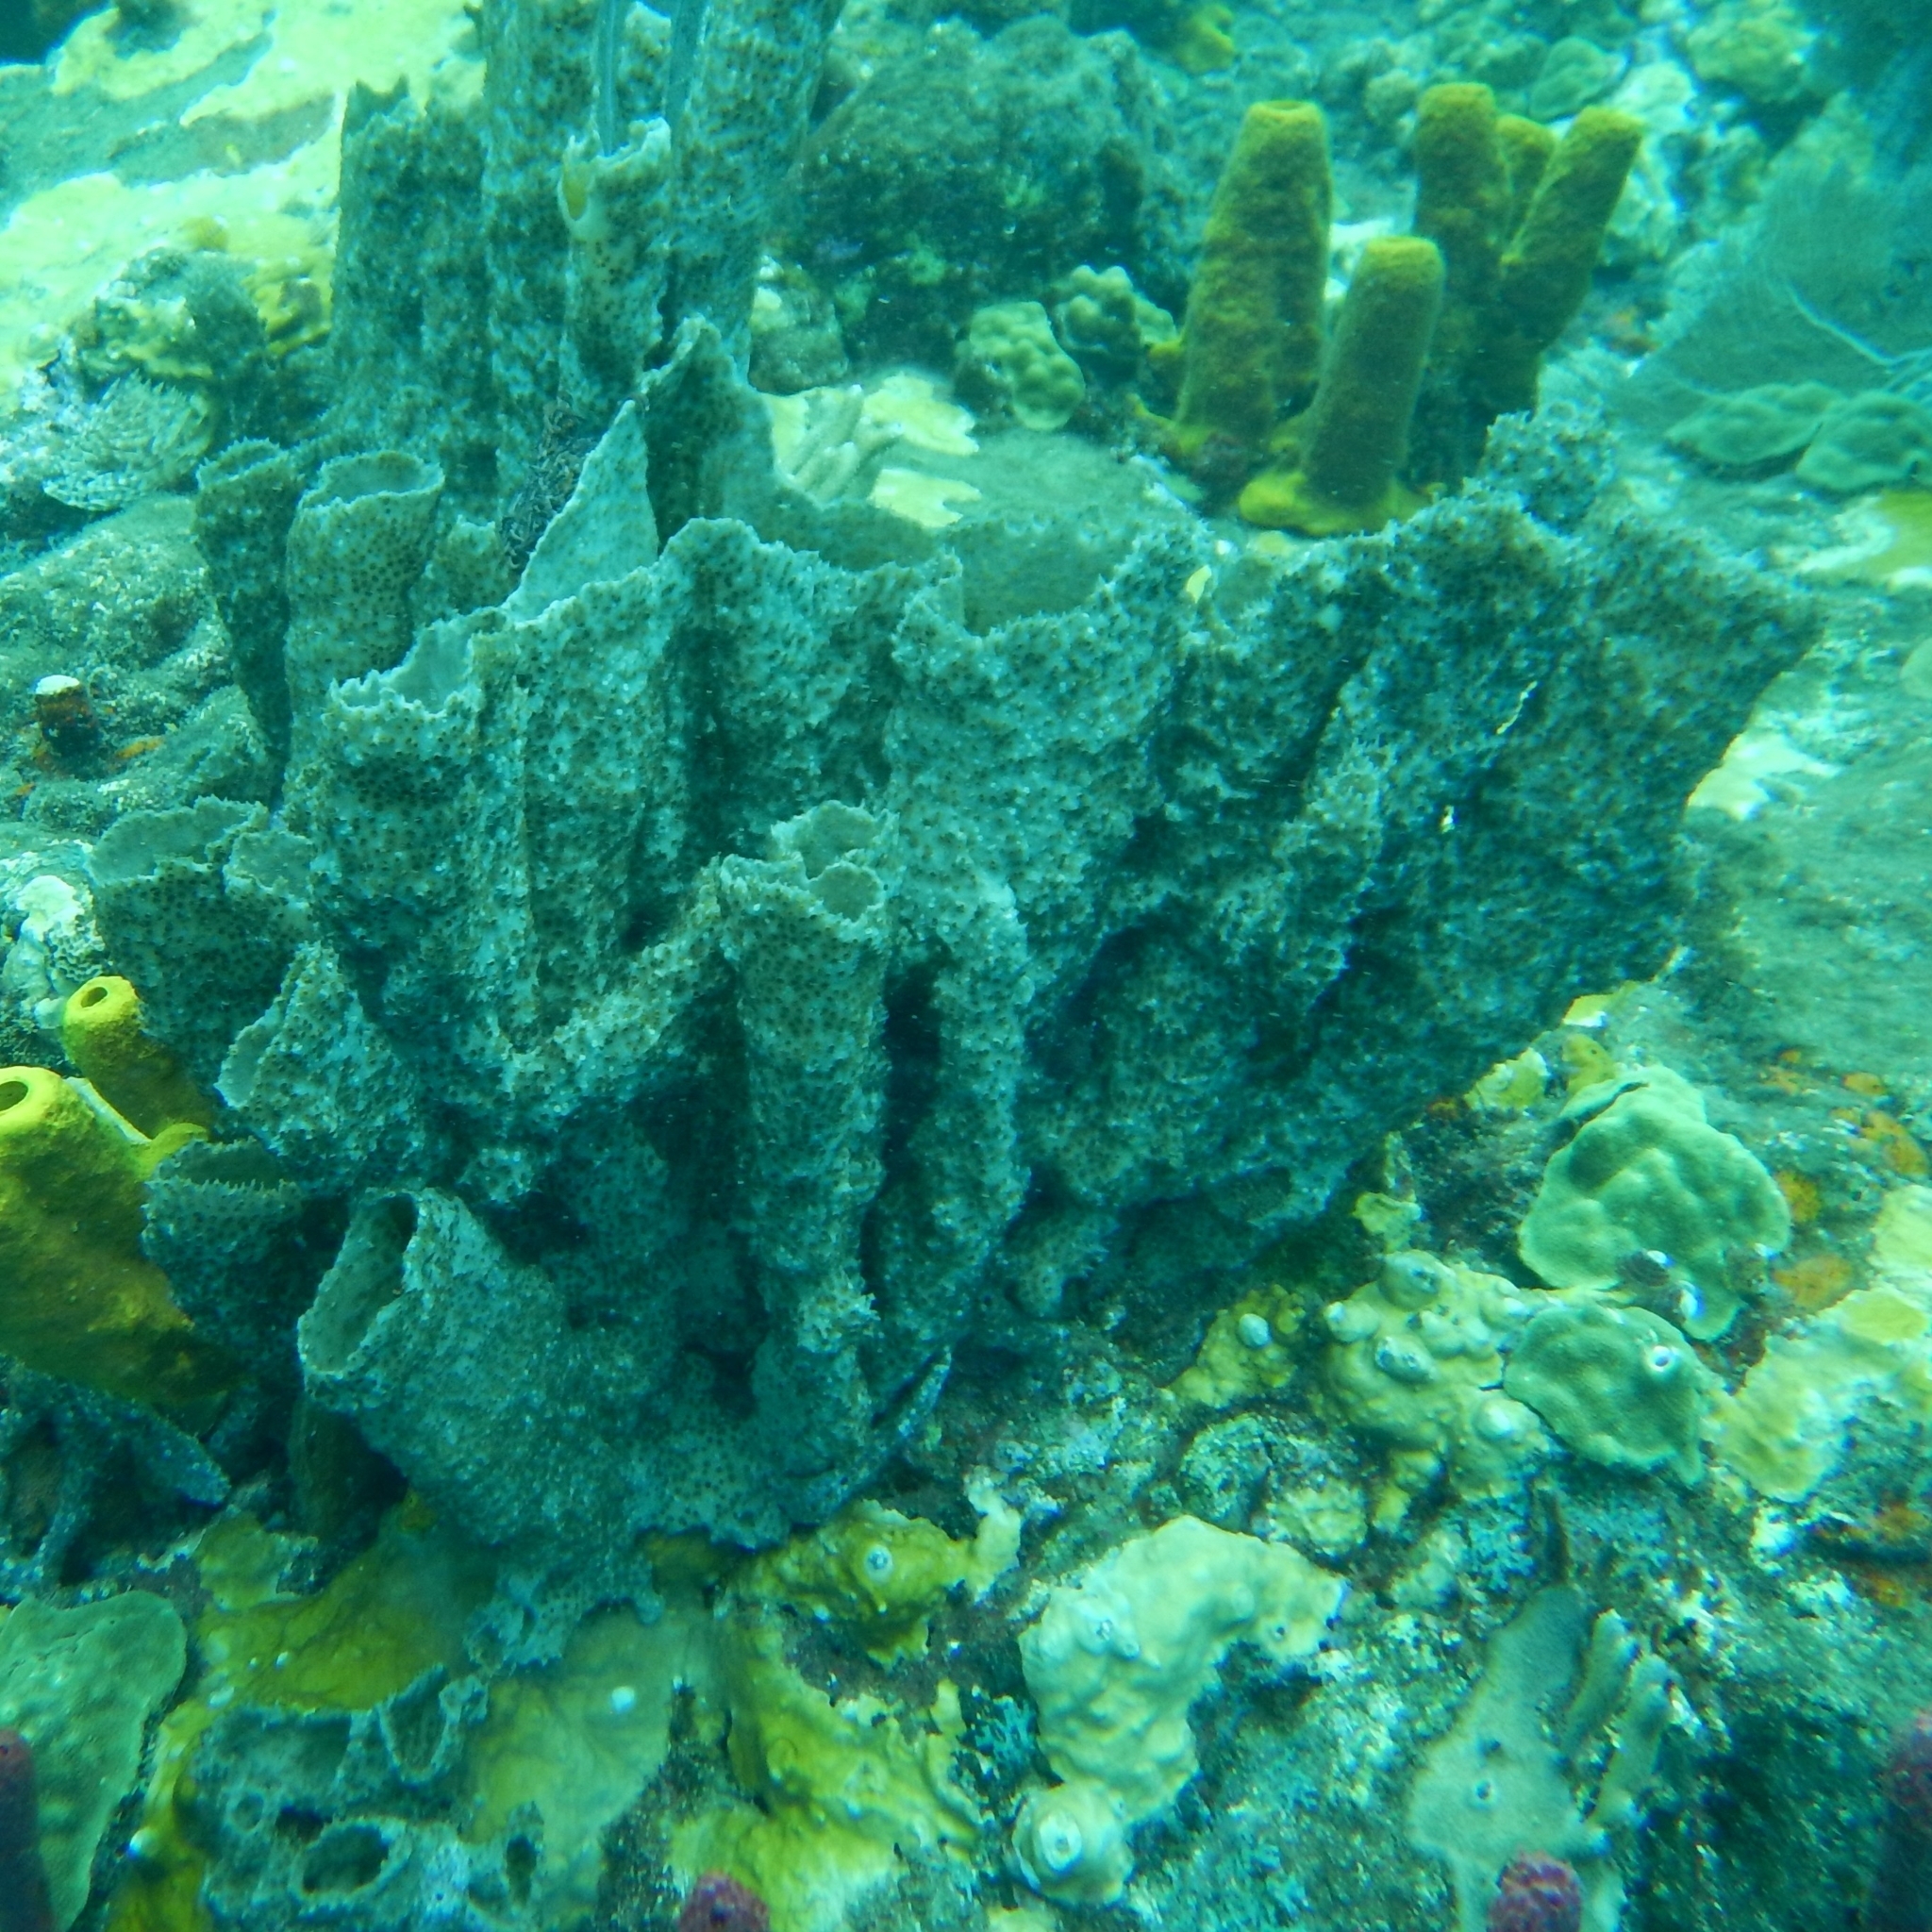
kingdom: Animalia
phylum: Porifera
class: Demospongiae
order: Haplosclerida
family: Callyspongiidae
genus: Callyspongia
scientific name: Callyspongia aculeata
